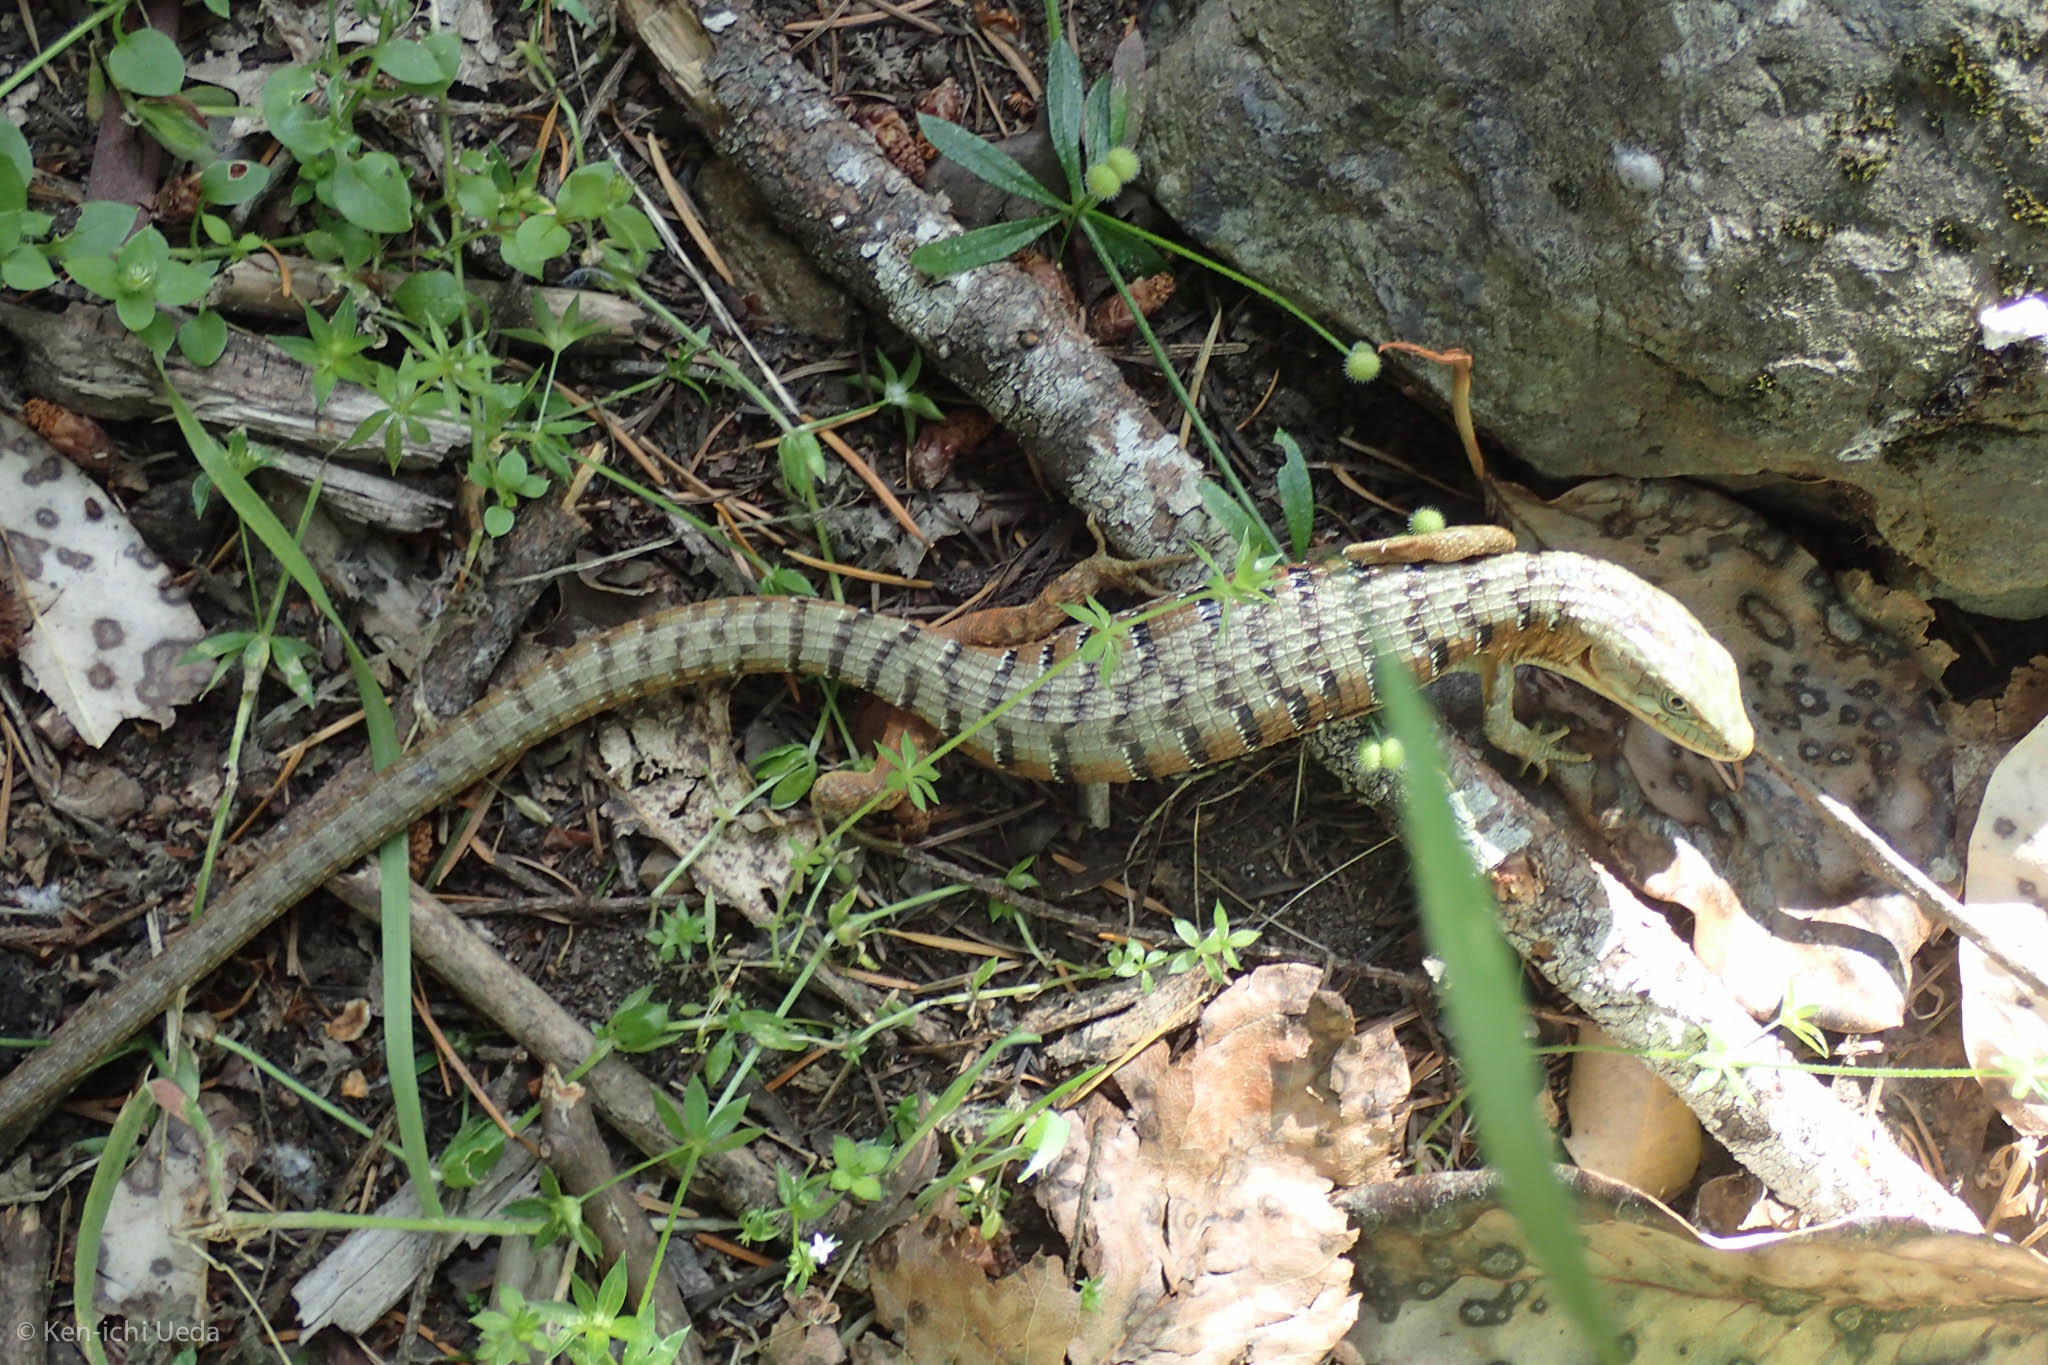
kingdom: Animalia
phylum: Chordata
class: Squamata
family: Anguidae
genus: Elgaria
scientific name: Elgaria multicarinata
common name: Southern alligator lizard
